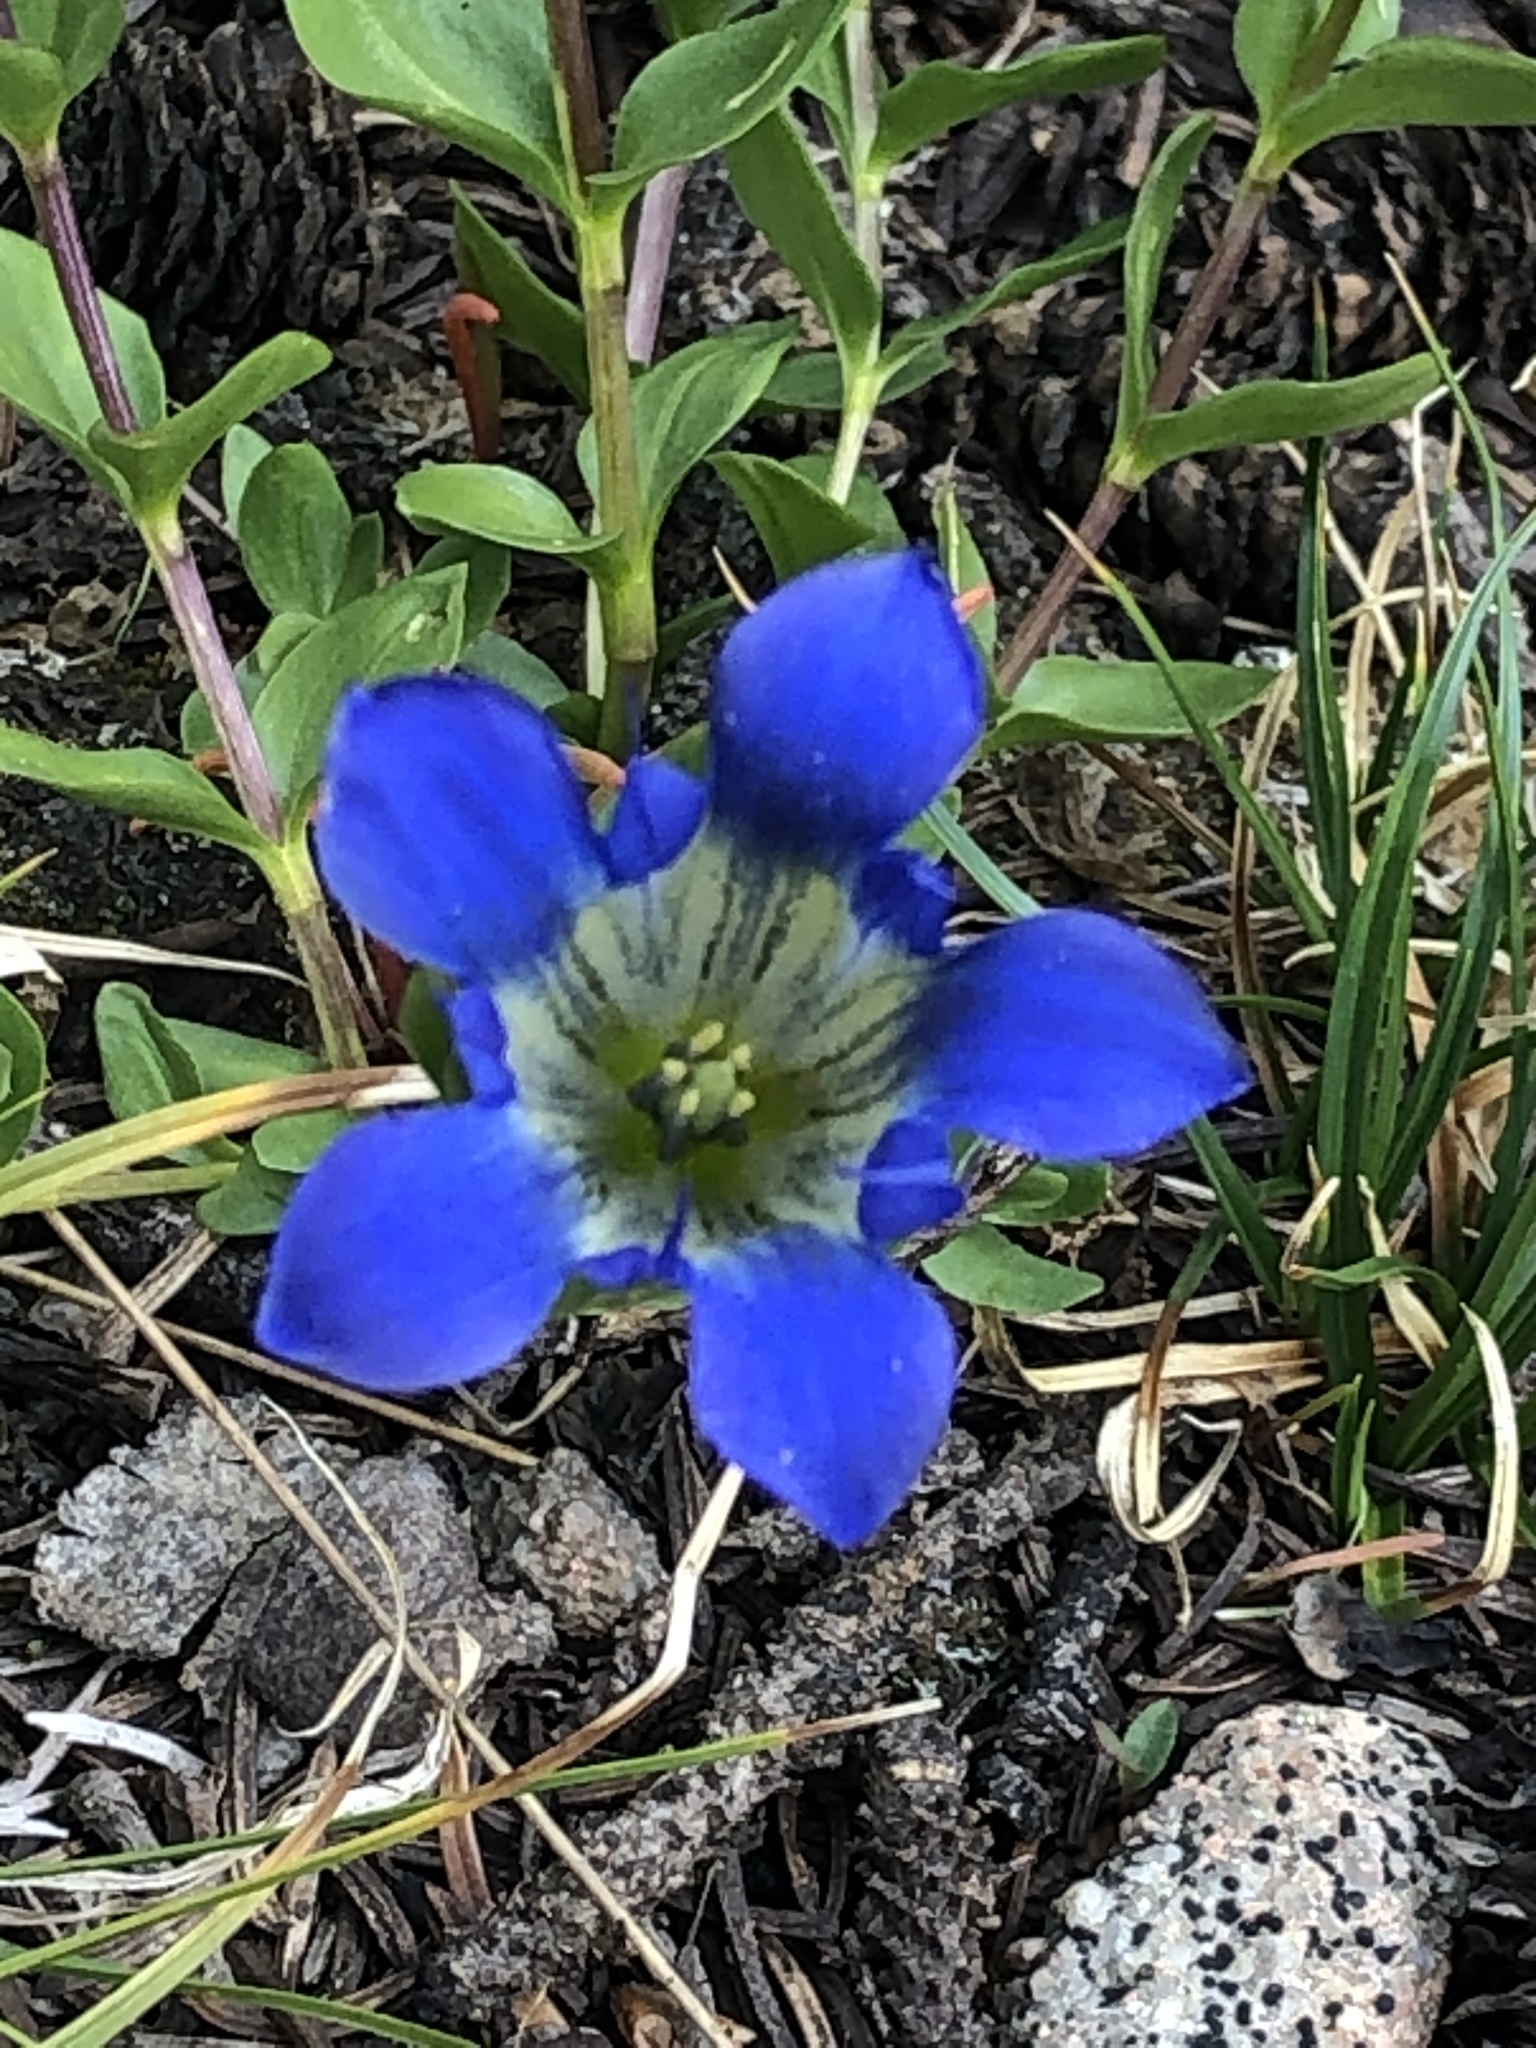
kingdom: Plantae
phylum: Tracheophyta
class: Magnoliopsida
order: Gentianales
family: Gentianaceae
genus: Gentiana
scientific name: Gentiana calycosa
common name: Rainier pleated gentian
